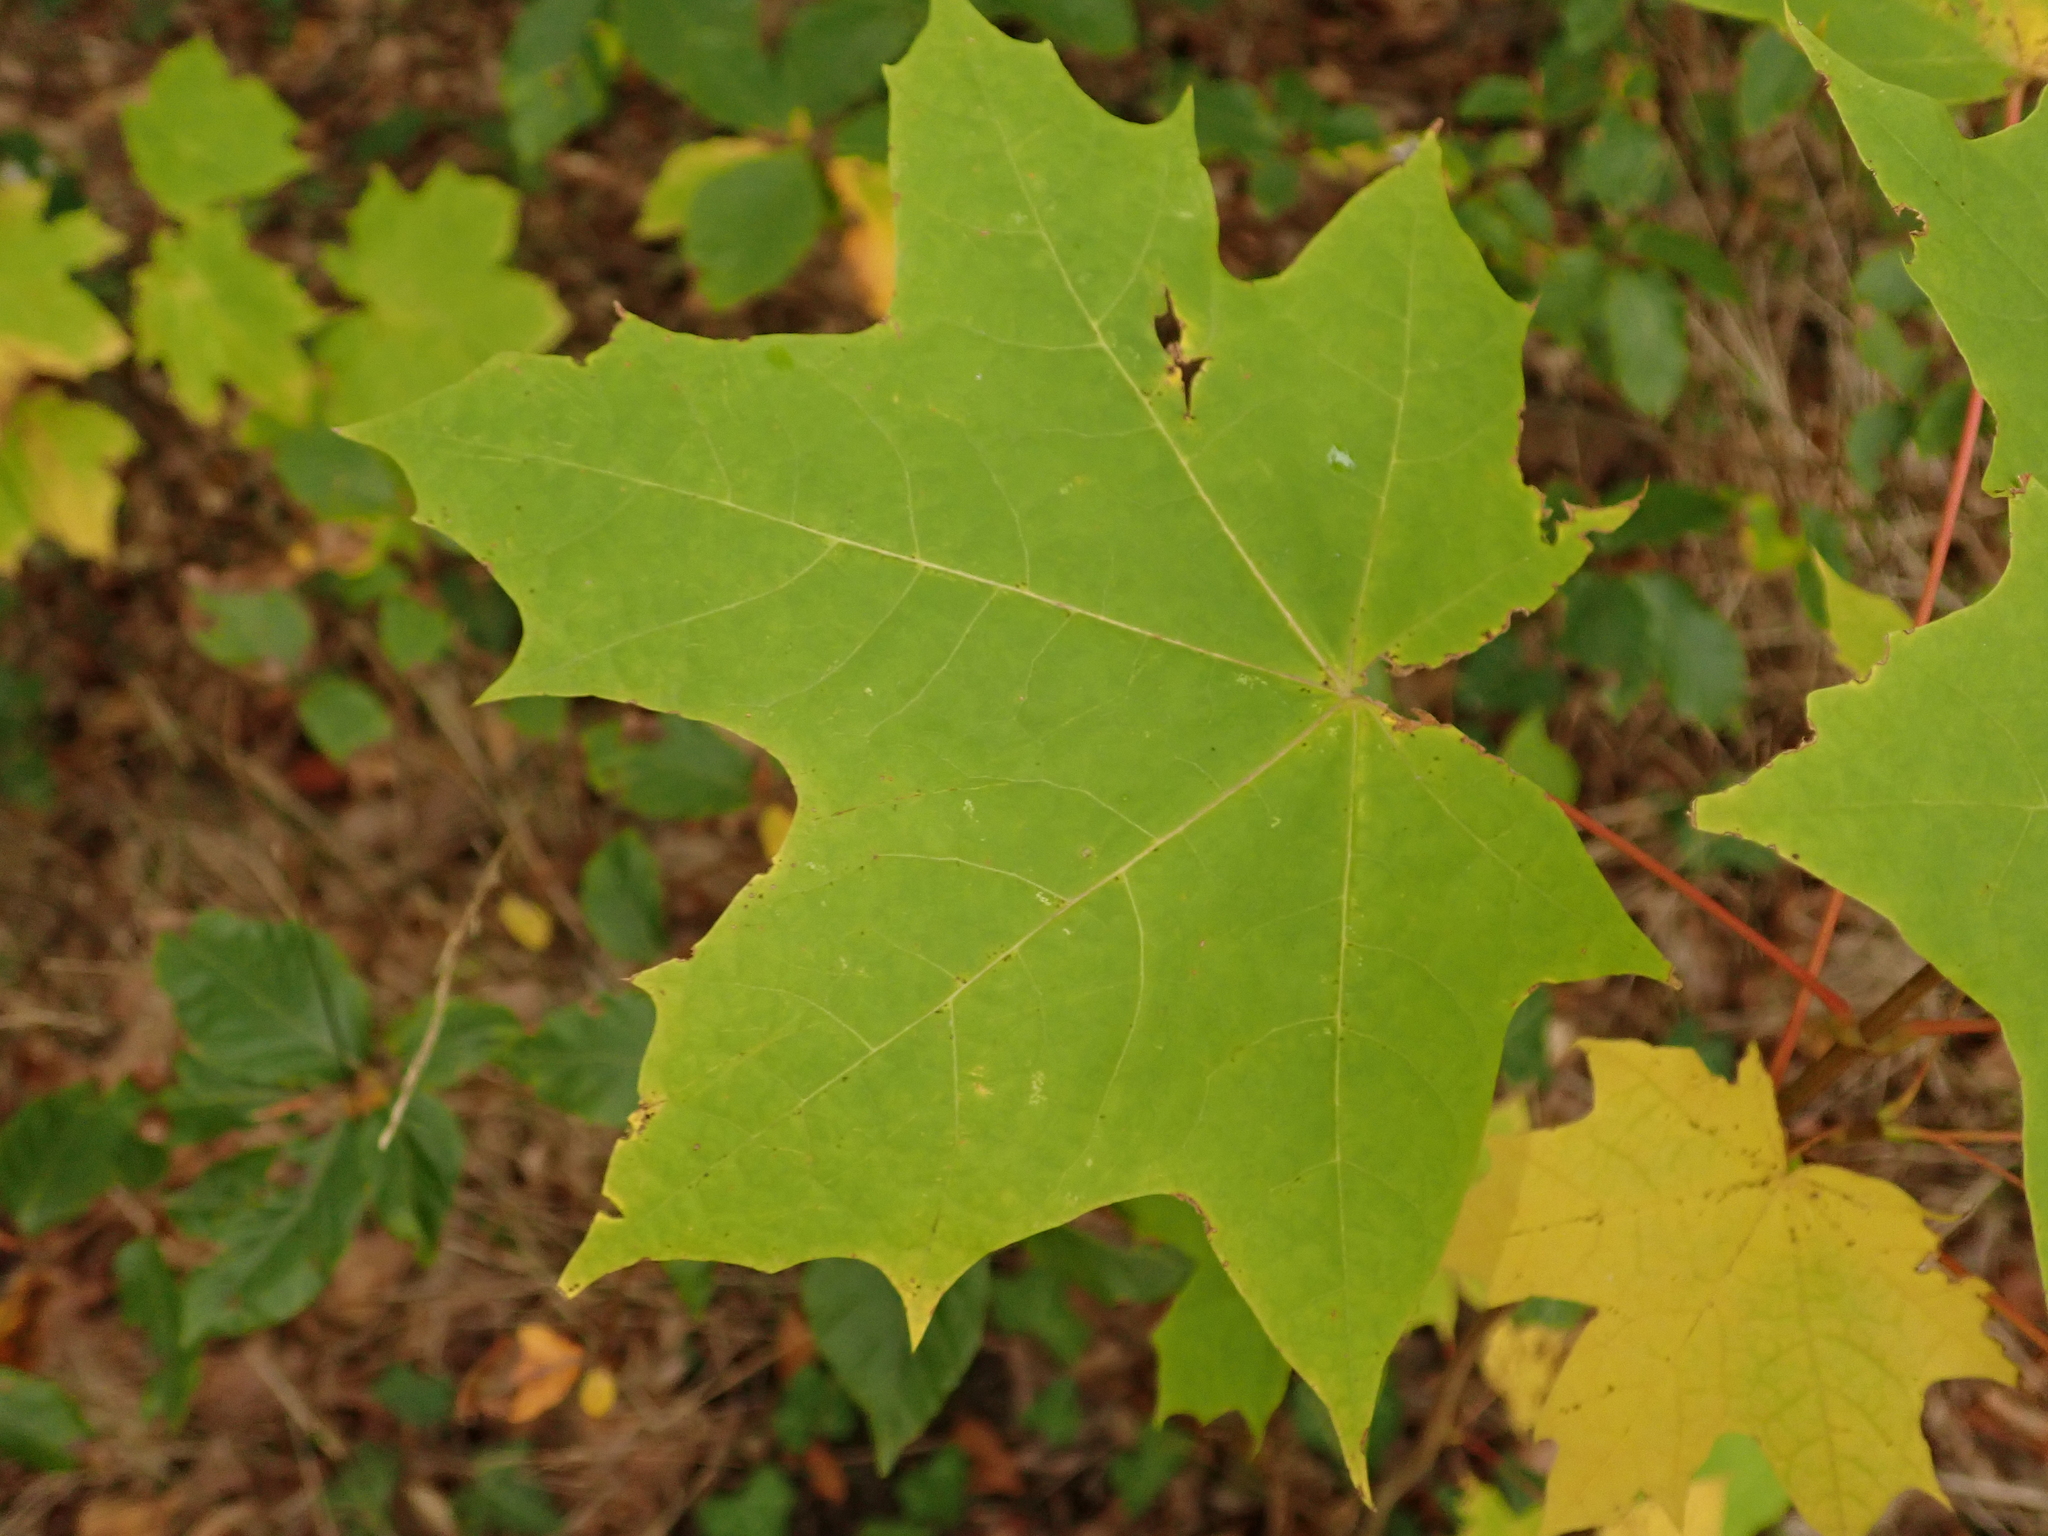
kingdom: Plantae
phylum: Tracheophyta
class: Magnoliopsida
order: Sapindales
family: Sapindaceae
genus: Acer
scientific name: Acer platanoides
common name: Norway maple
